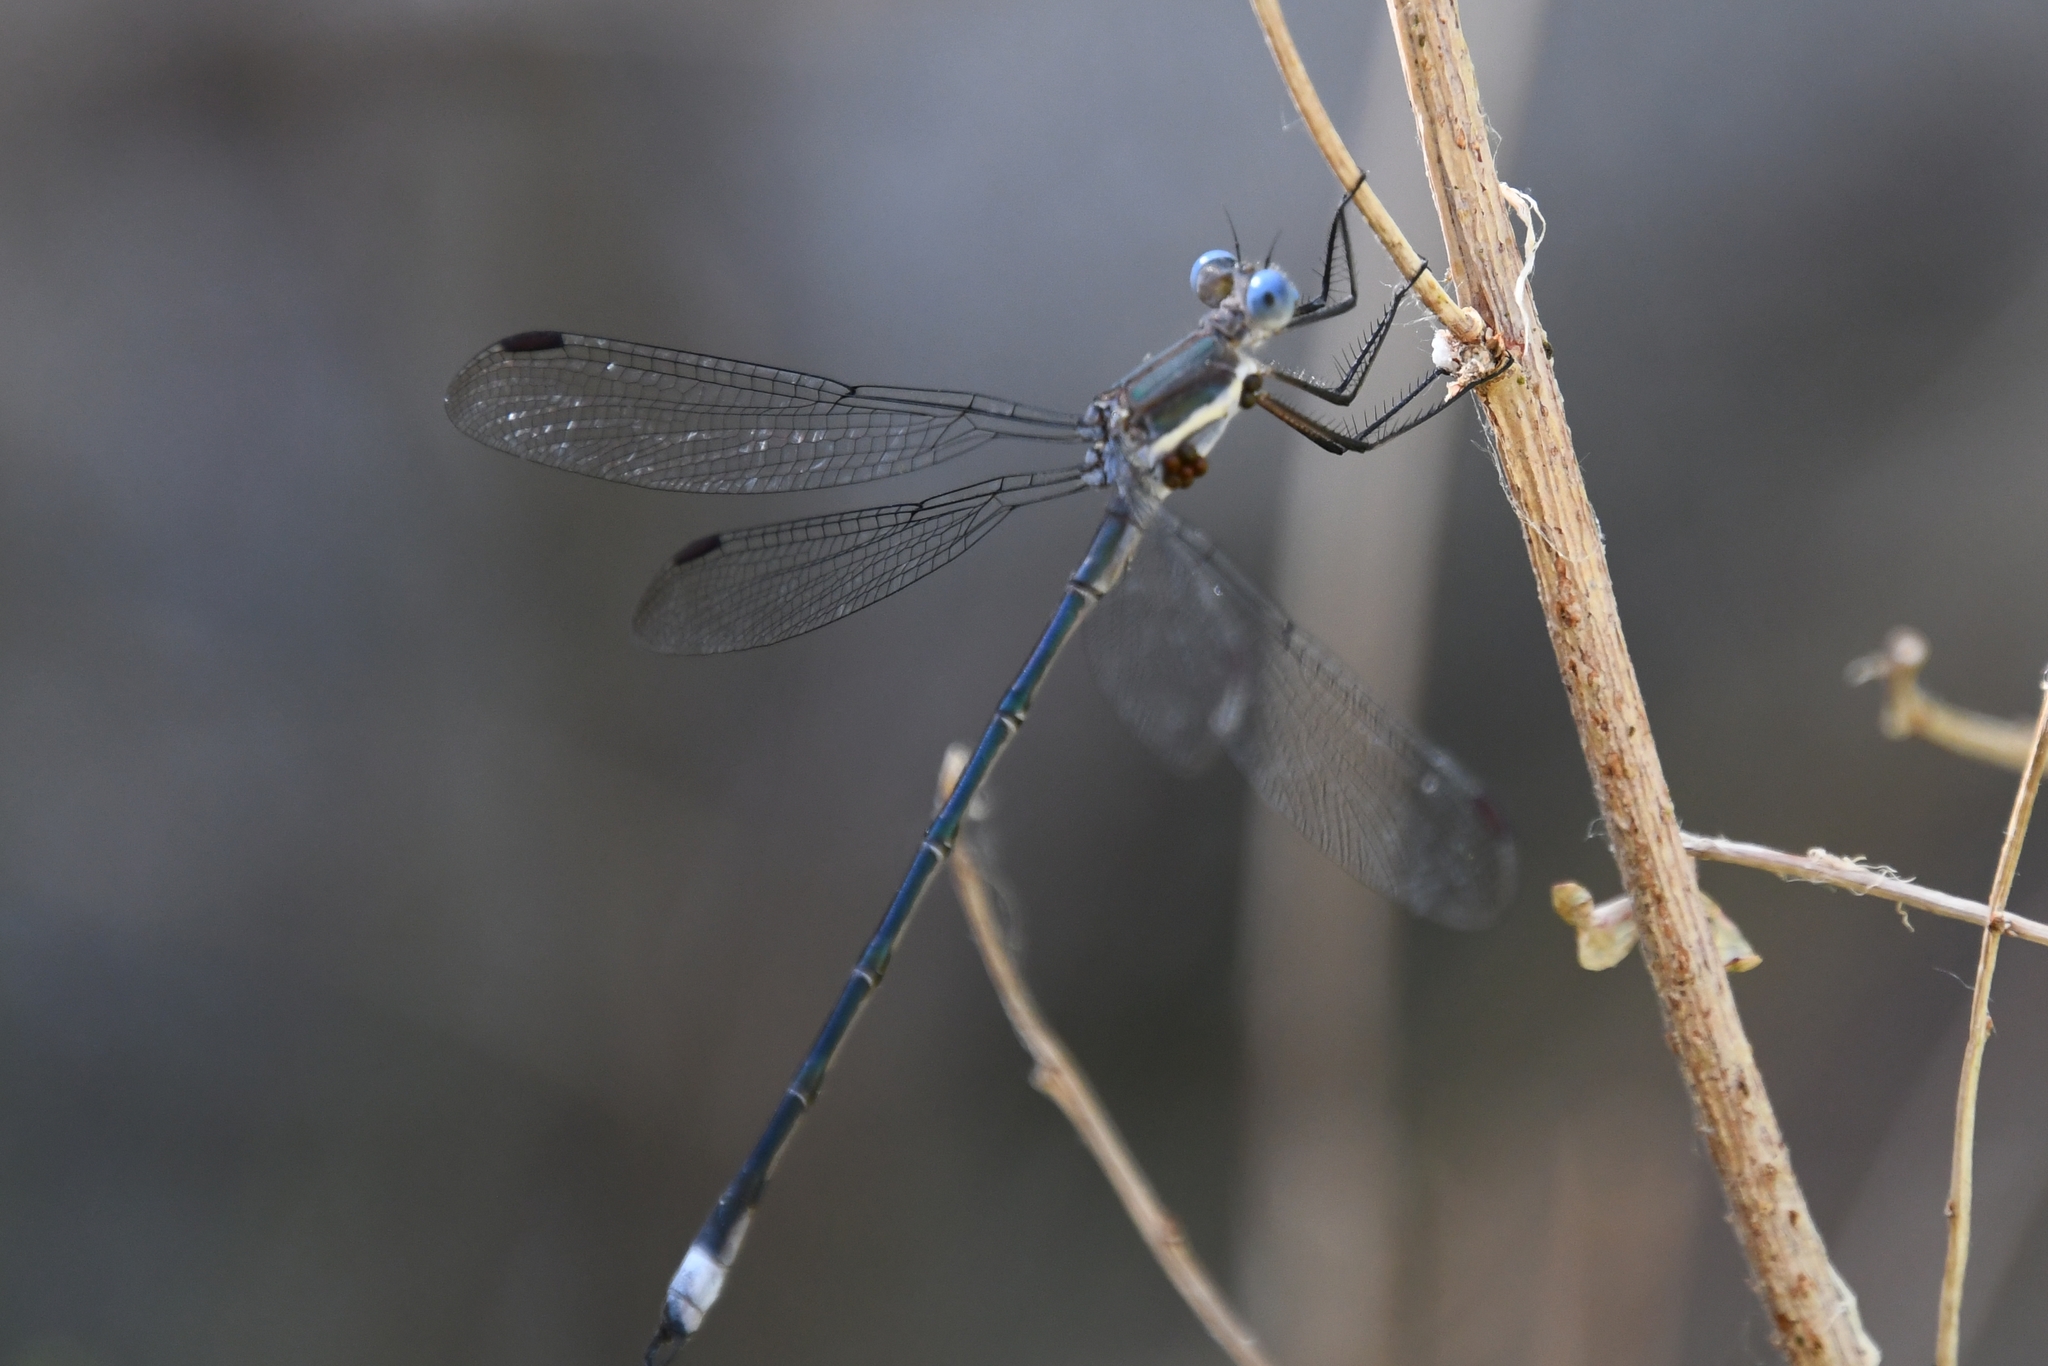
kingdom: Animalia
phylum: Arthropoda
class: Insecta
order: Odonata
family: Lestidae
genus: Archilestes
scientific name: Archilestes grandis
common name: Great spreadwing
